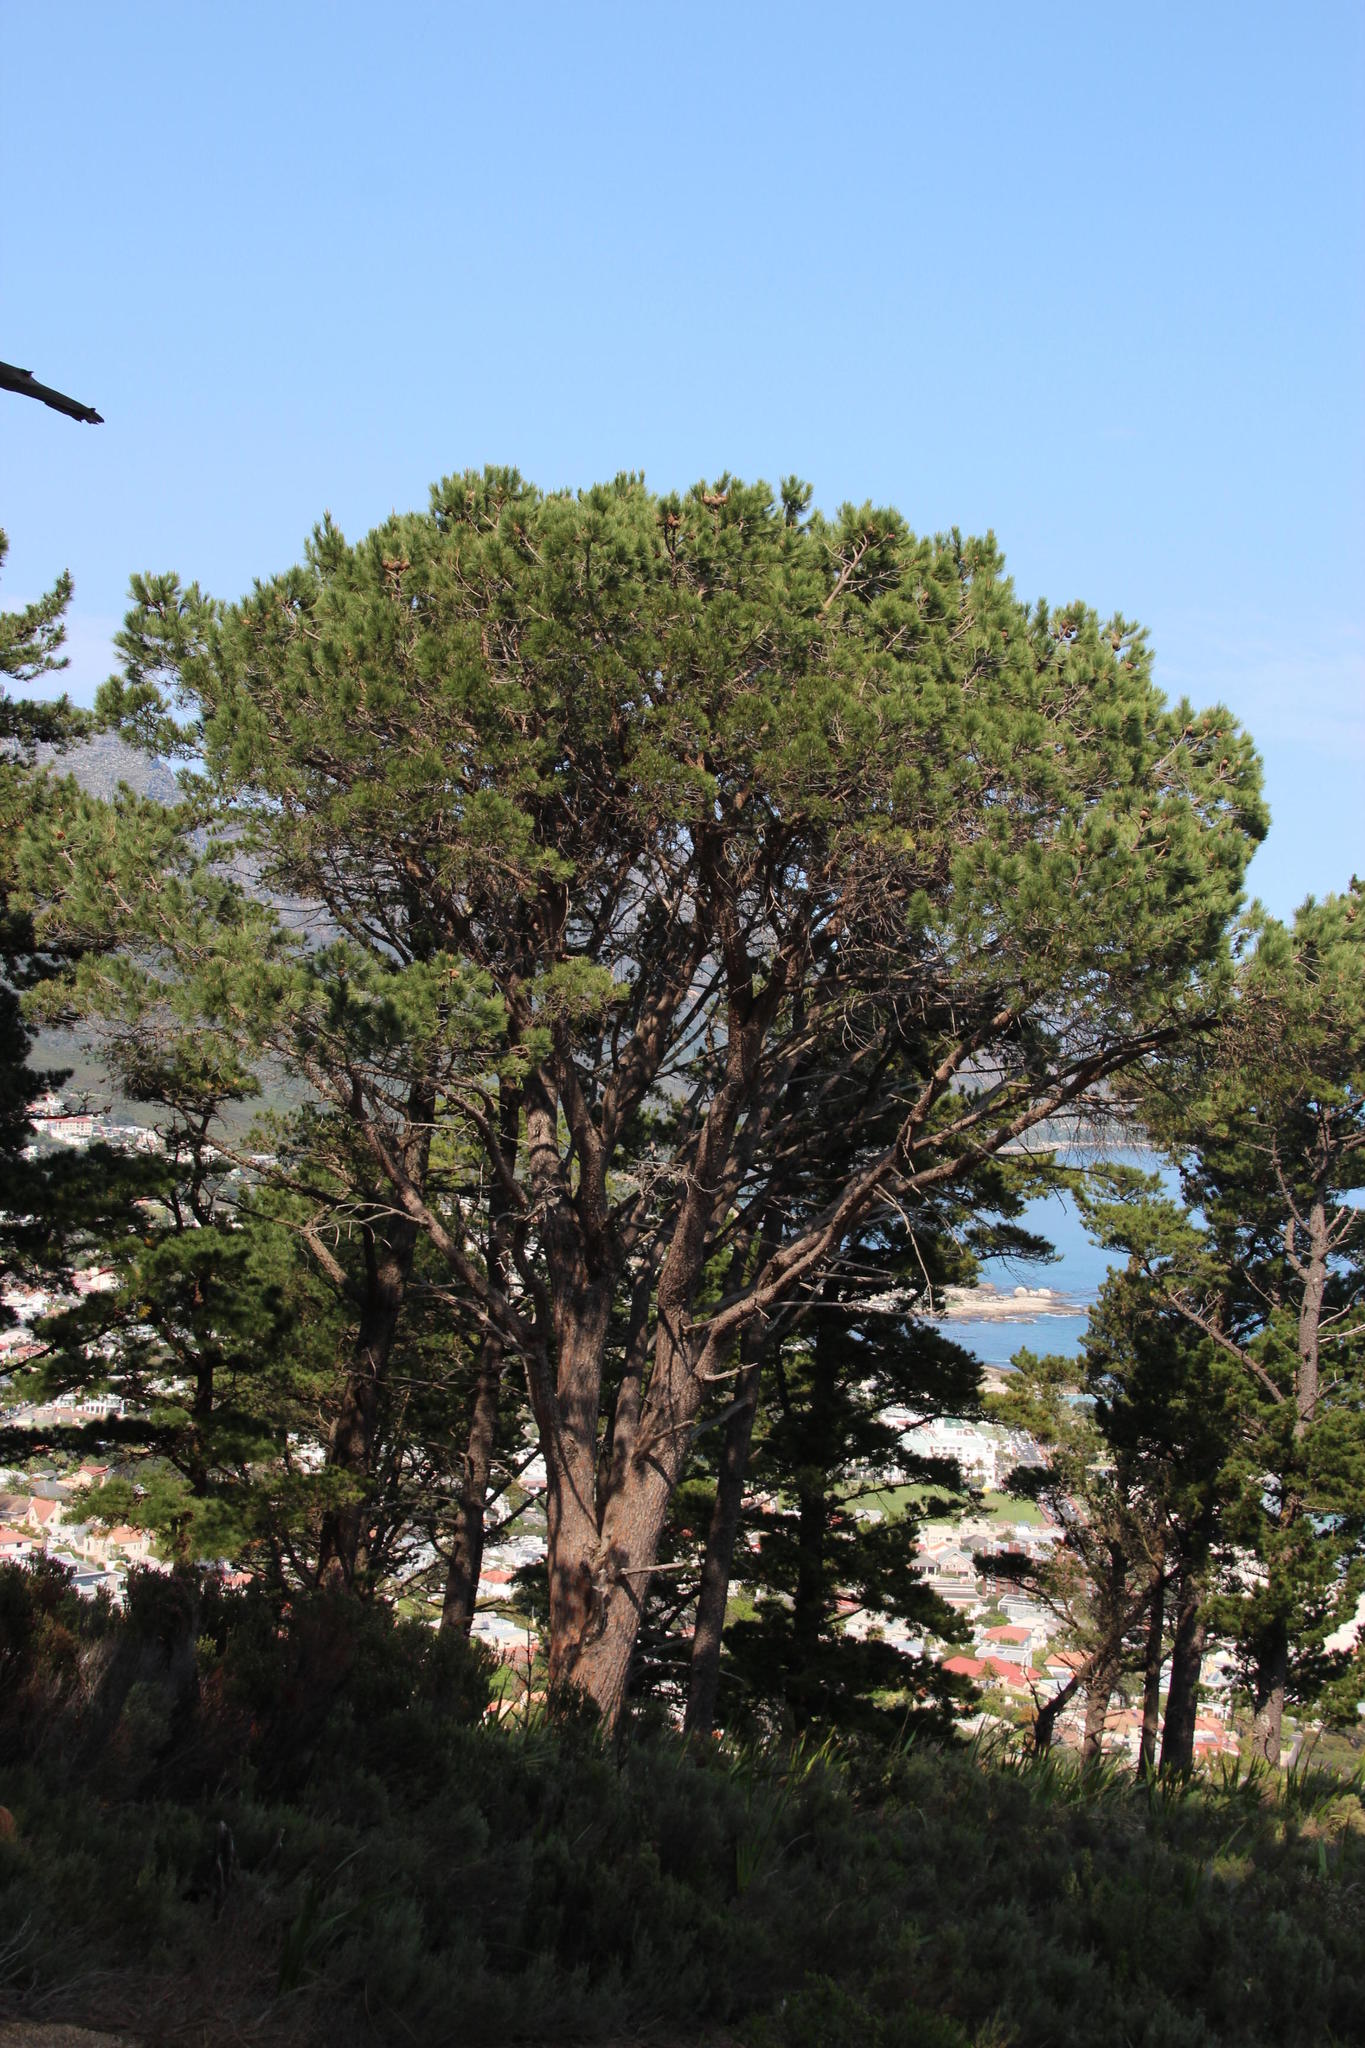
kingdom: Plantae
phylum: Tracheophyta
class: Pinopsida
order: Pinales
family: Pinaceae
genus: Pinus
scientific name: Pinus pinea
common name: Italian stone pine
